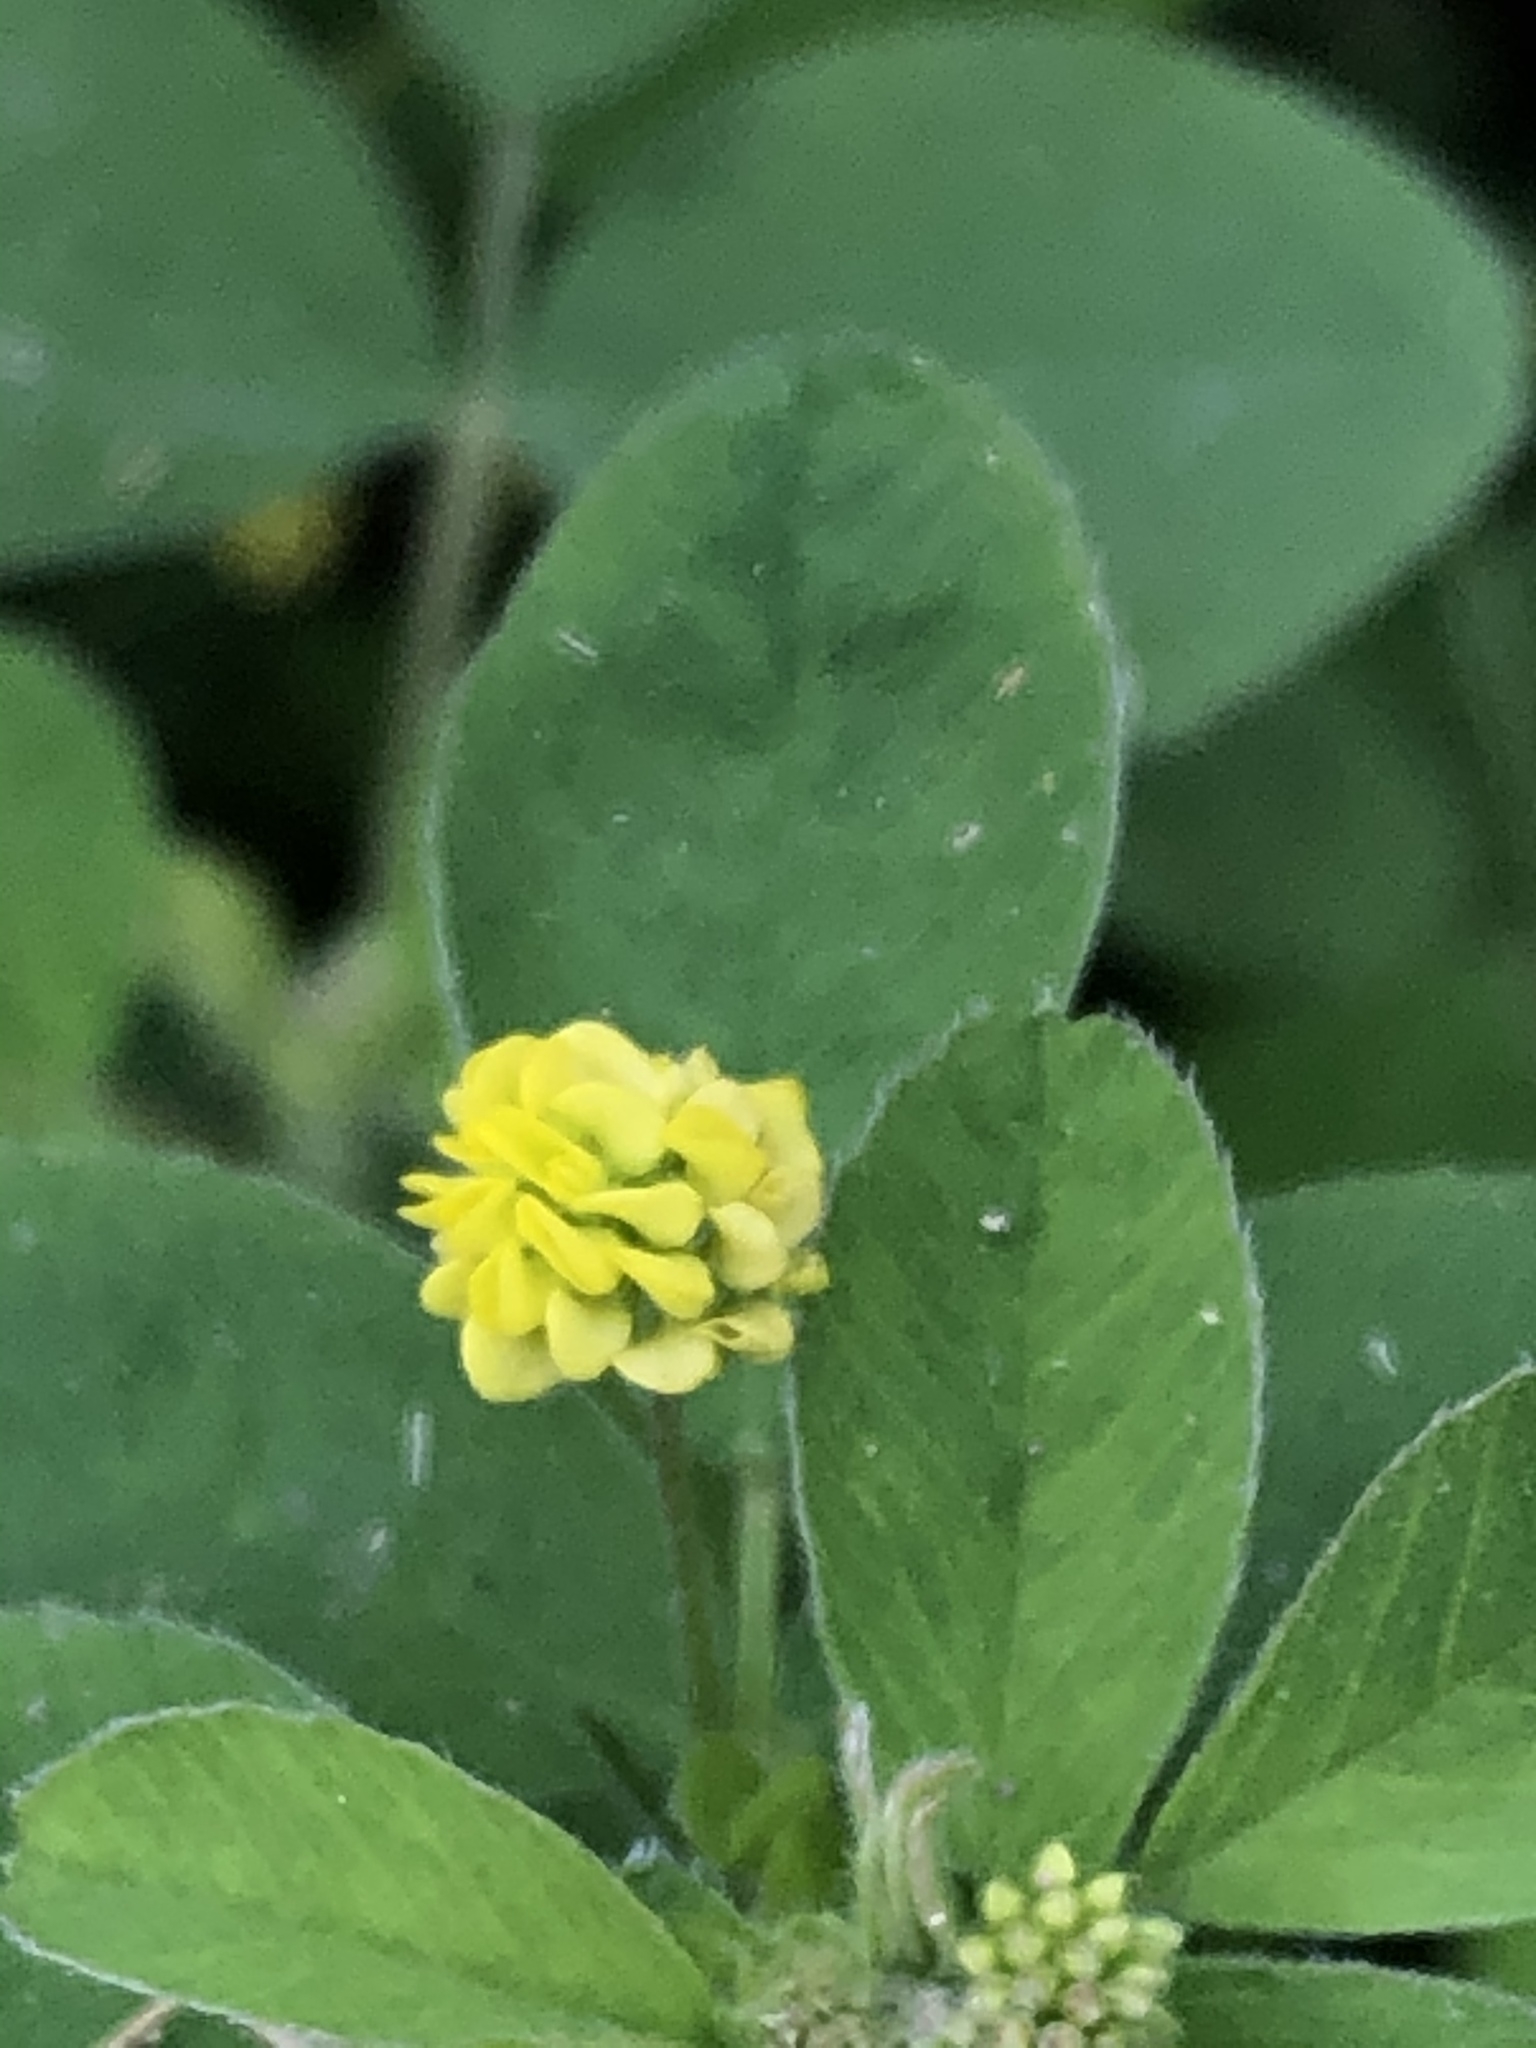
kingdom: Plantae
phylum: Tracheophyta
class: Magnoliopsida
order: Fabales
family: Fabaceae
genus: Medicago
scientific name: Medicago lupulina
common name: Black medick
